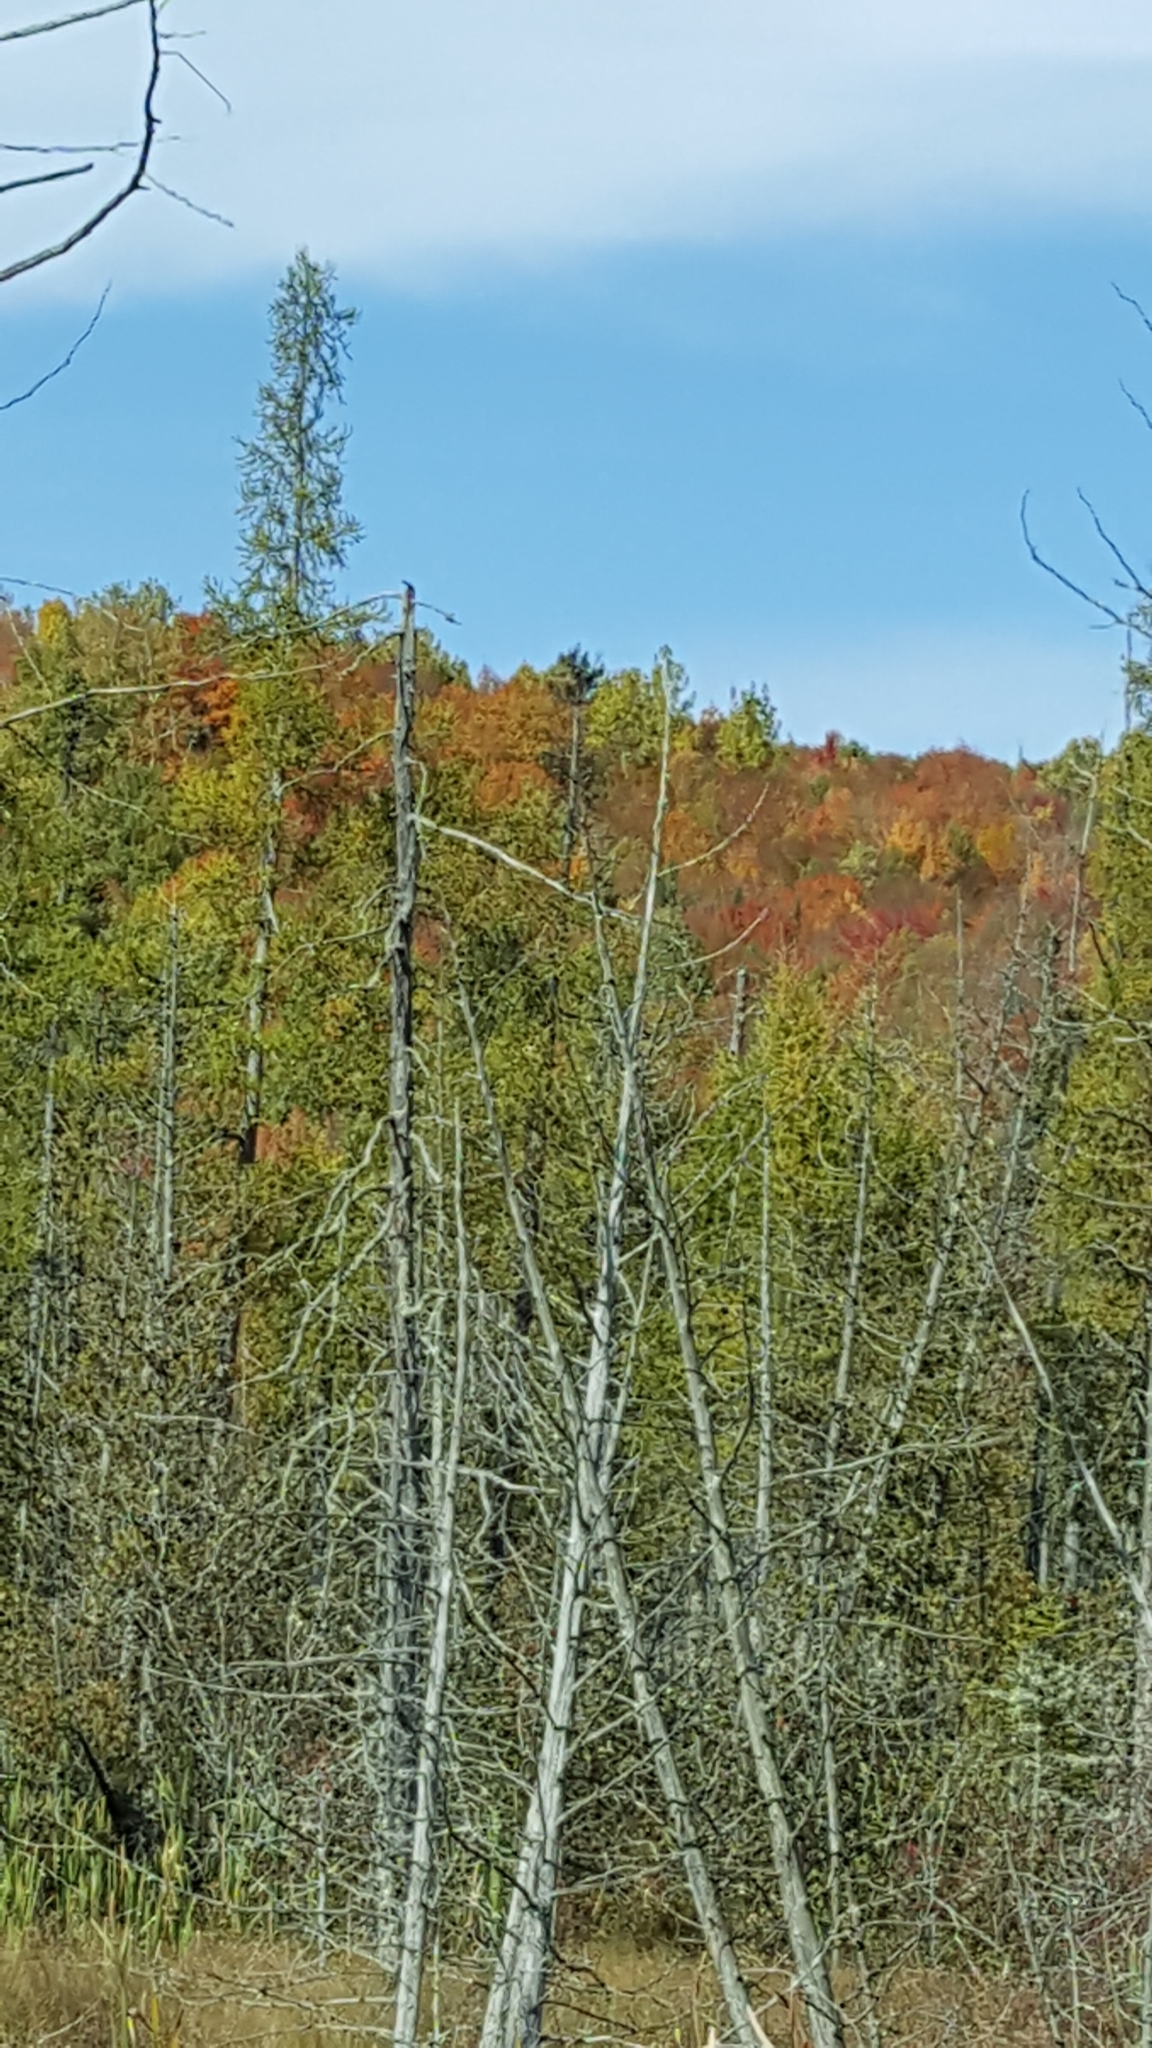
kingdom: Plantae
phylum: Tracheophyta
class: Pinopsida
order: Pinales
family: Pinaceae
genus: Larix
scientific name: Larix laricina
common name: American larch
